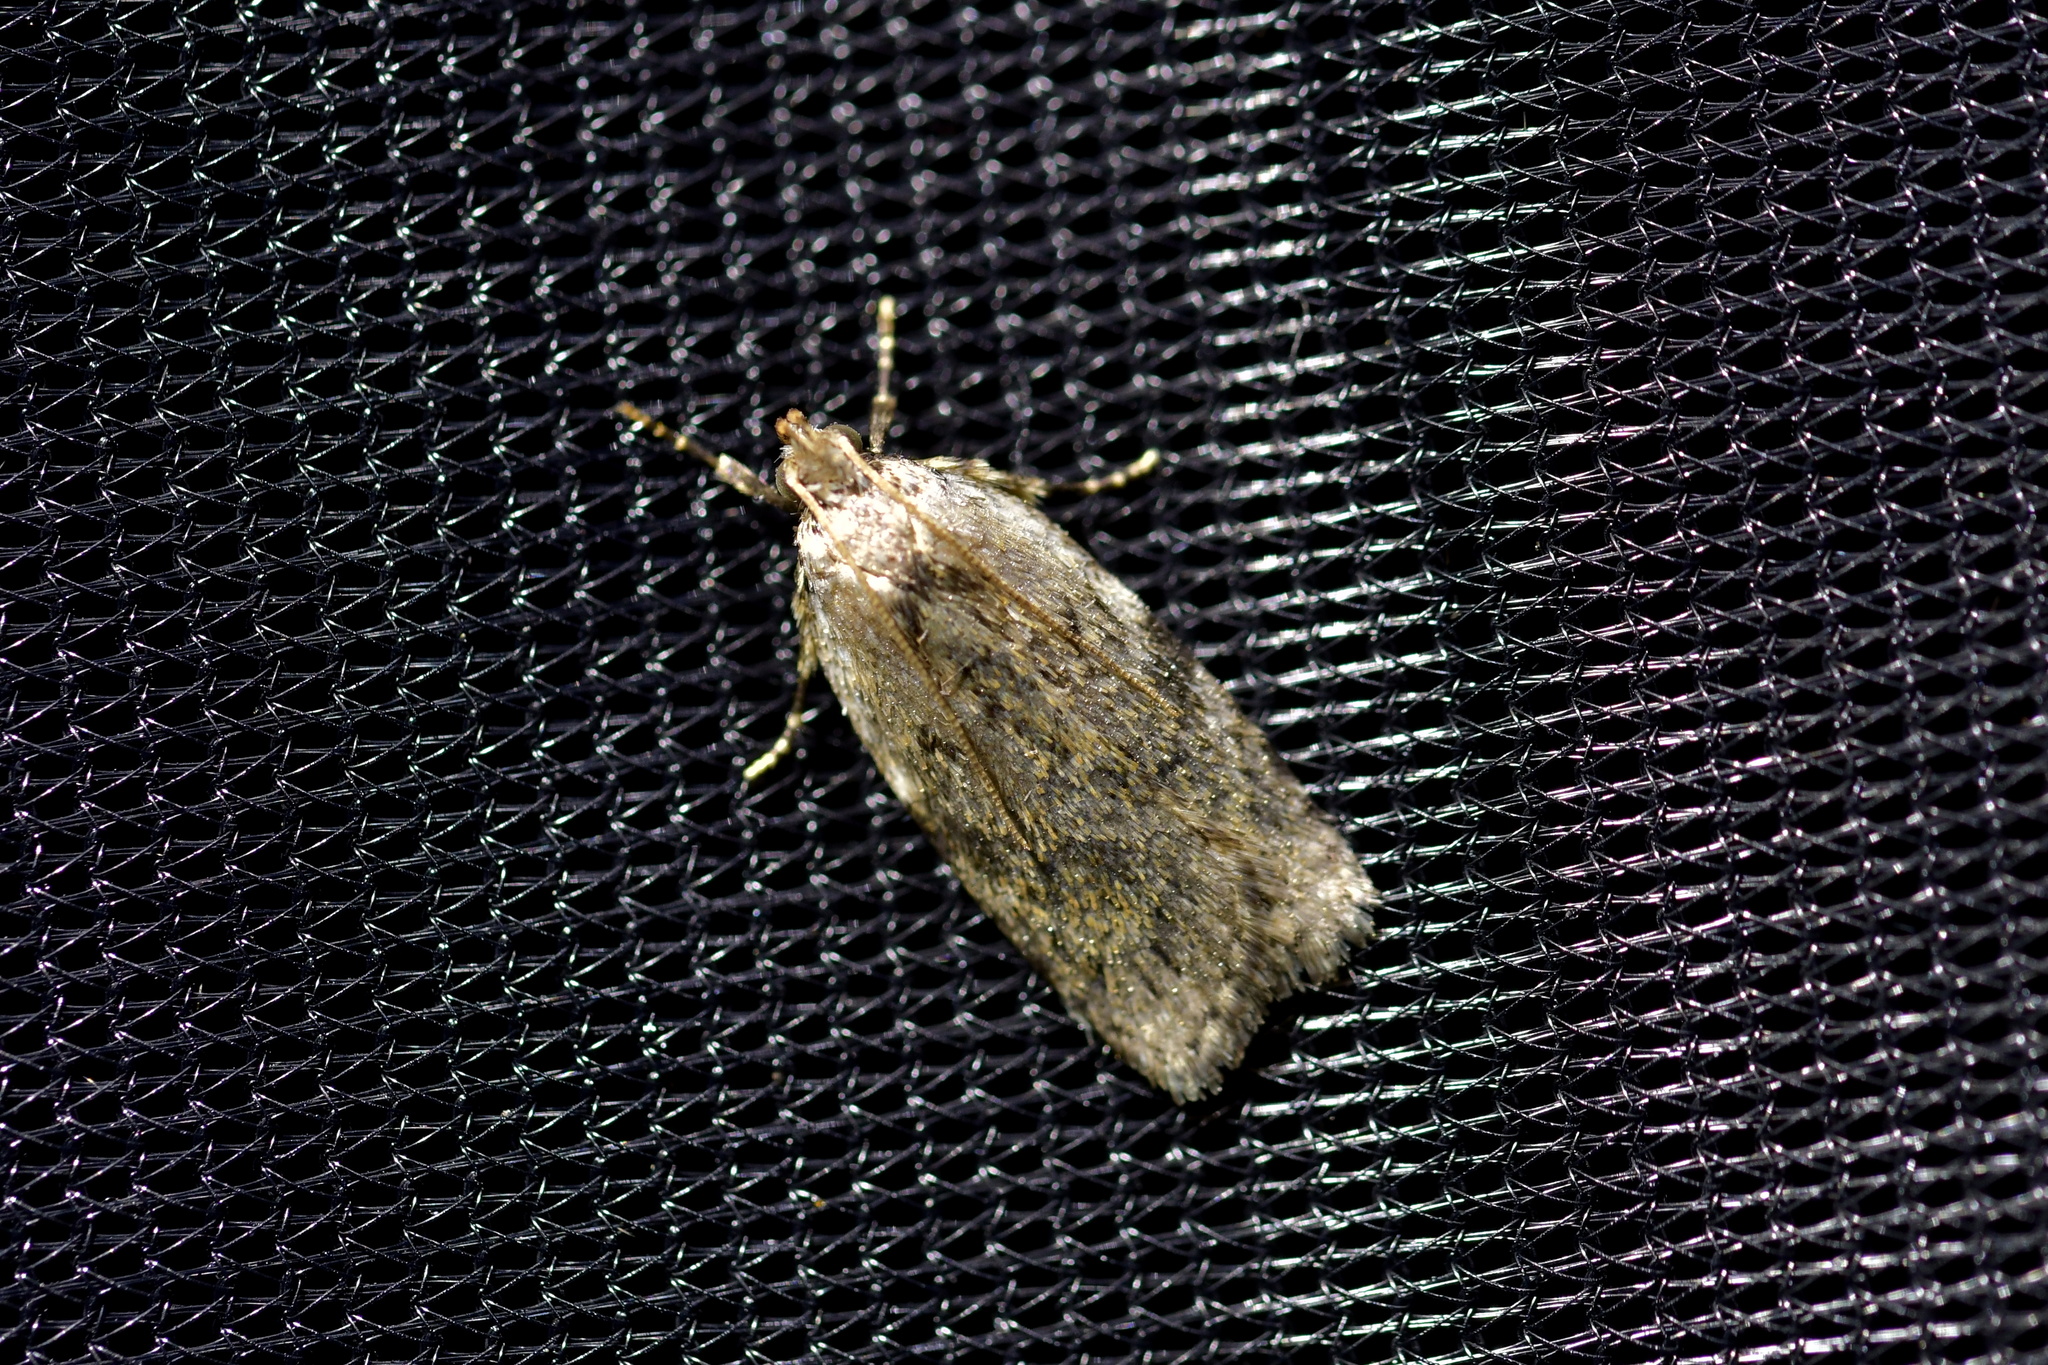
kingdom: Animalia
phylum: Arthropoda
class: Insecta
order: Lepidoptera
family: Depressariidae
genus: Phaeosaces
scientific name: Phaeosaces compsotypa
